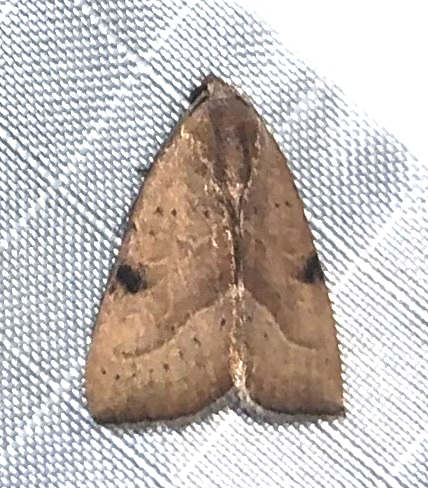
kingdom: Animalia
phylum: Arthropoda
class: Insecta
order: Lepidoptera
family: Noctuidae
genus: Galgula
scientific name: Galgula partita
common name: Wedgeling
